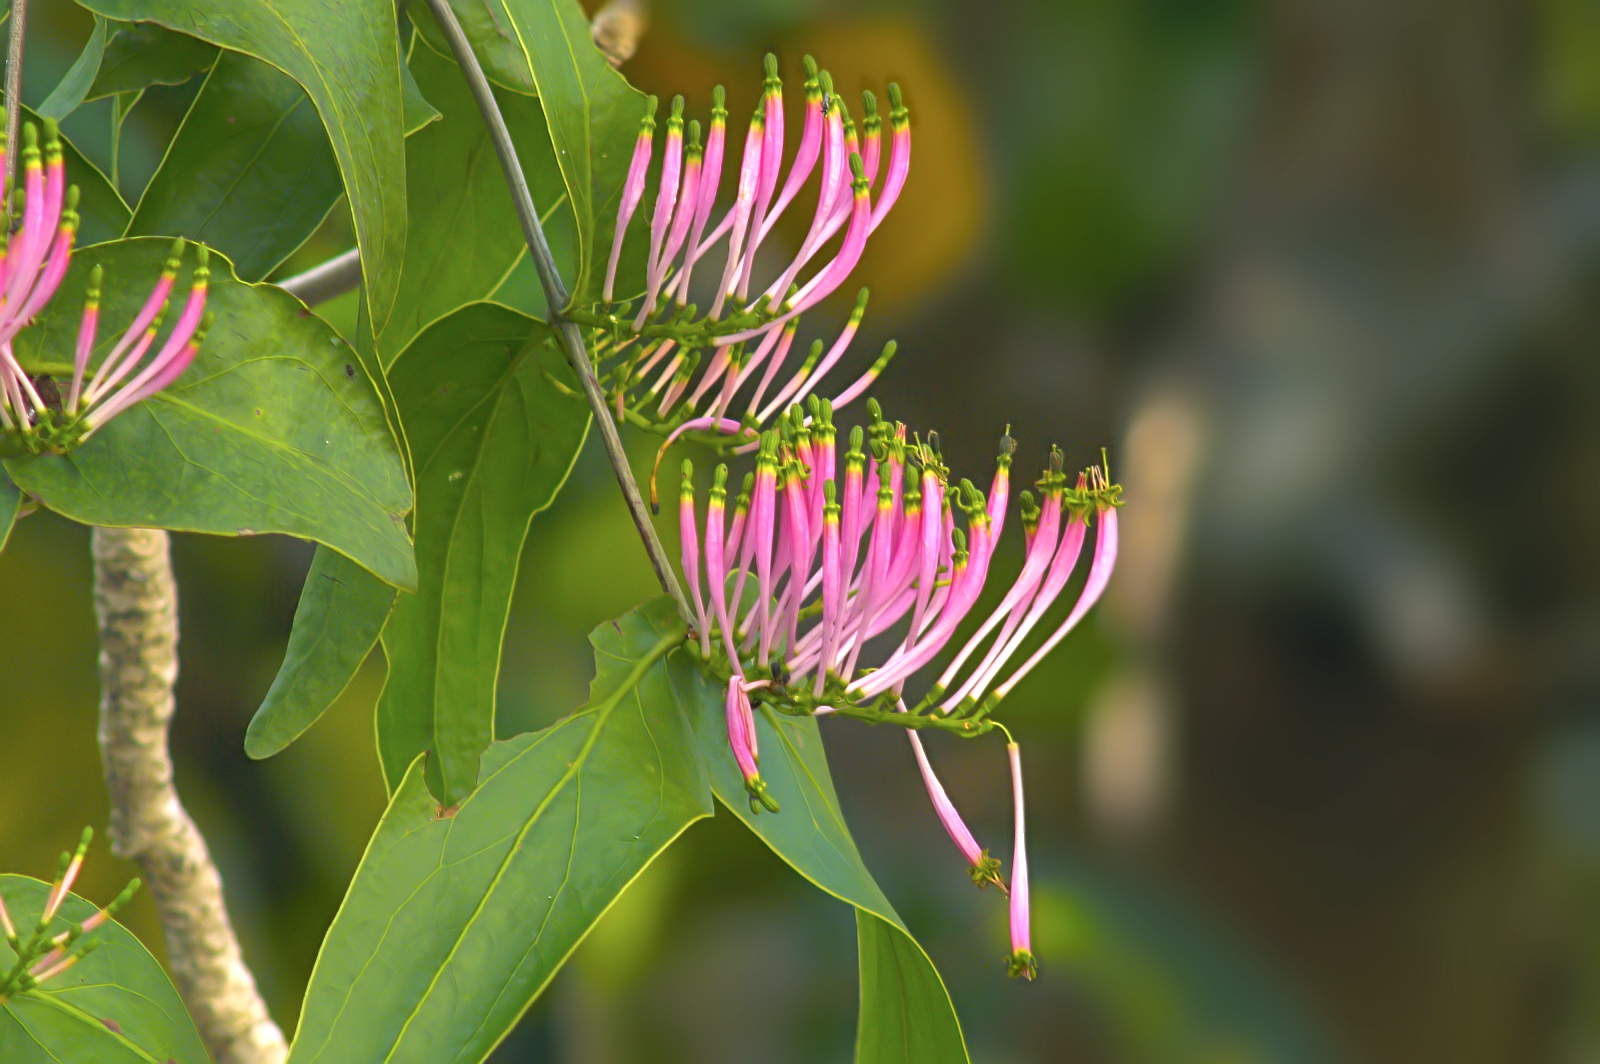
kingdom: Plantae
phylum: Tracheophyta
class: Magnoliopsida
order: Santalales
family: Loranthaceae
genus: Dendrophthoe
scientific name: Dendrophthoe falcata
